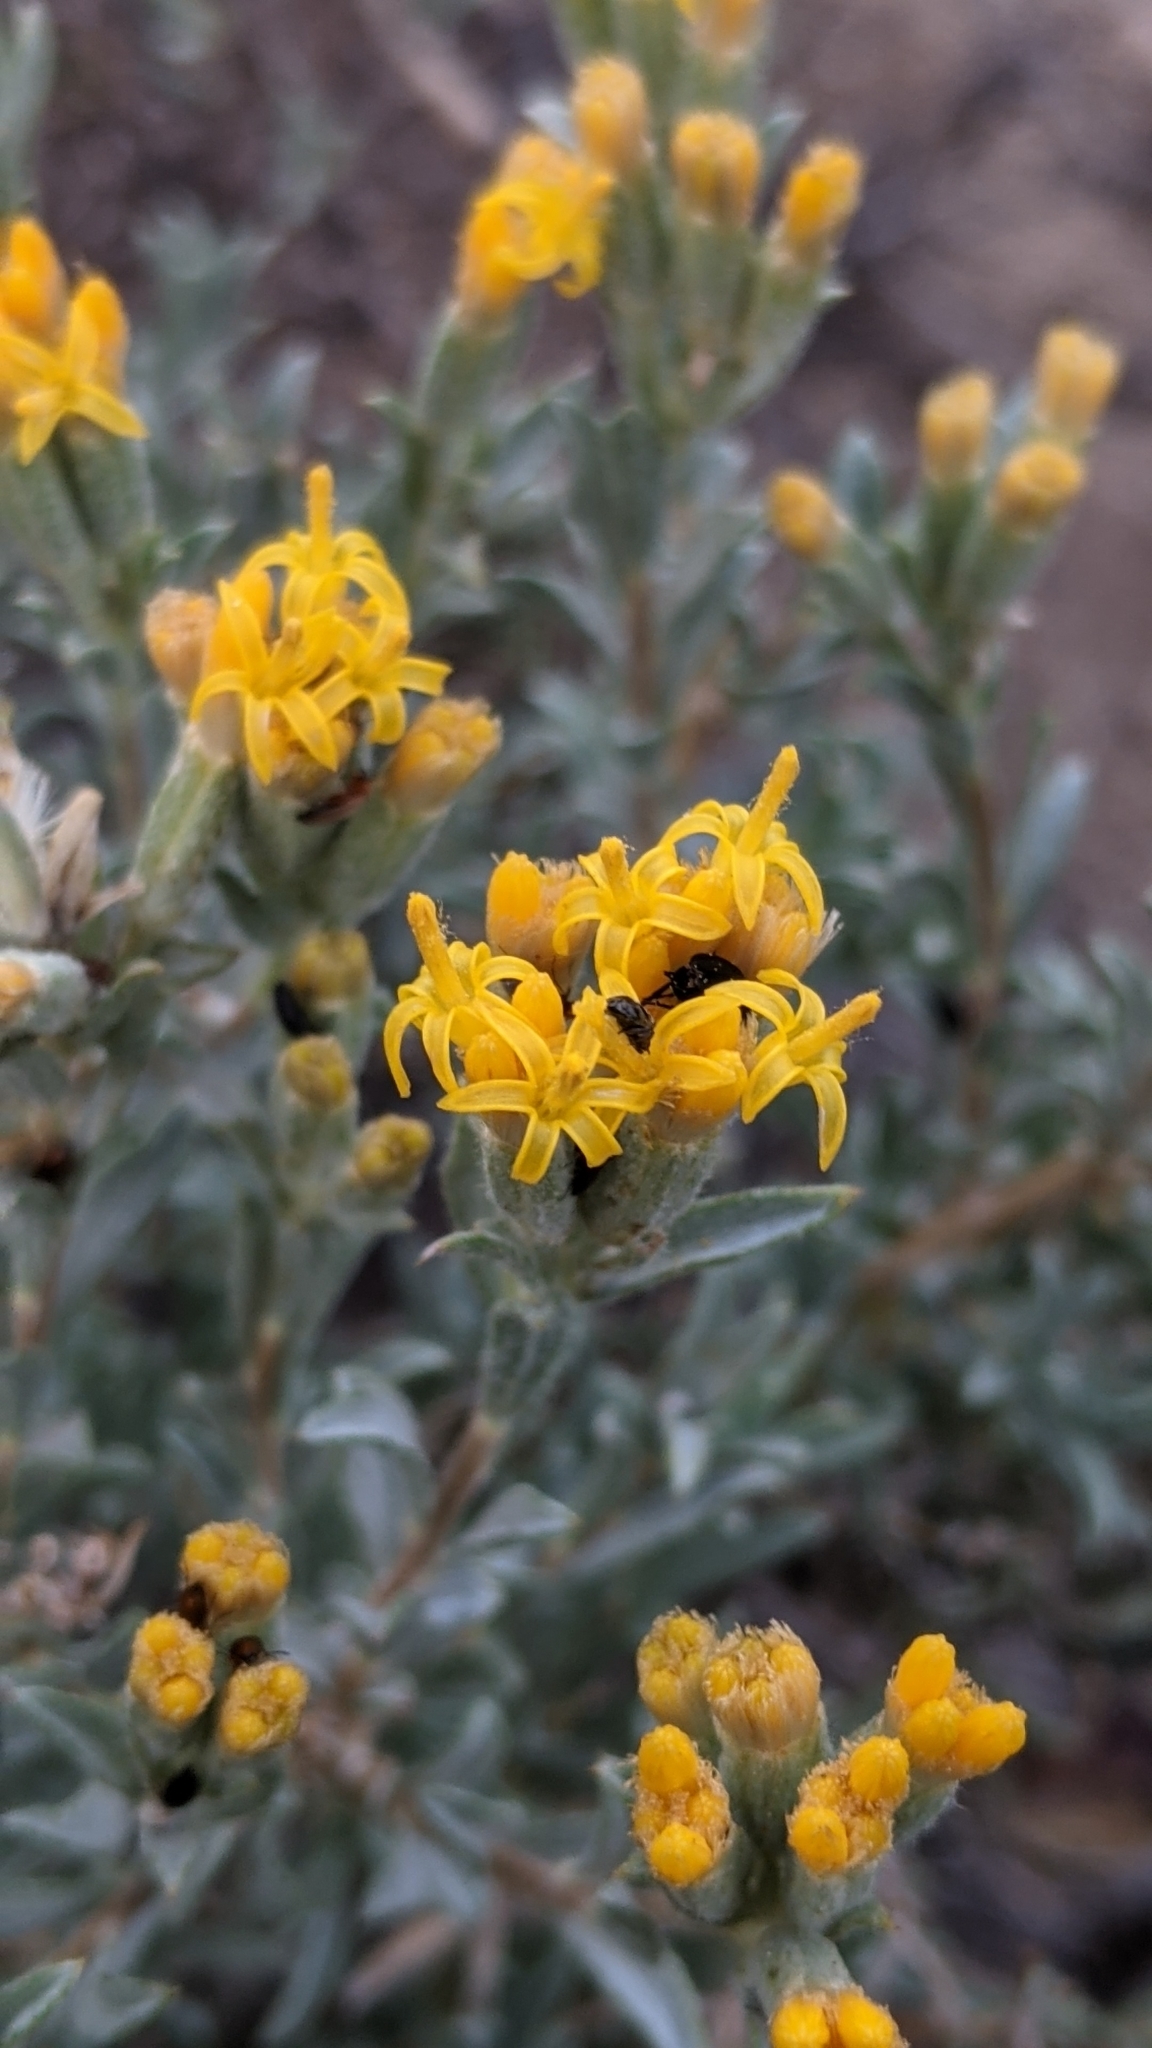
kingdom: Plantae
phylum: Tracheophyta
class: Magnoliopsida
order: Asterales
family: Asteraceae
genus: Tetradymia
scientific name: Tetradymia canescens
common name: Spineless horsebrush
